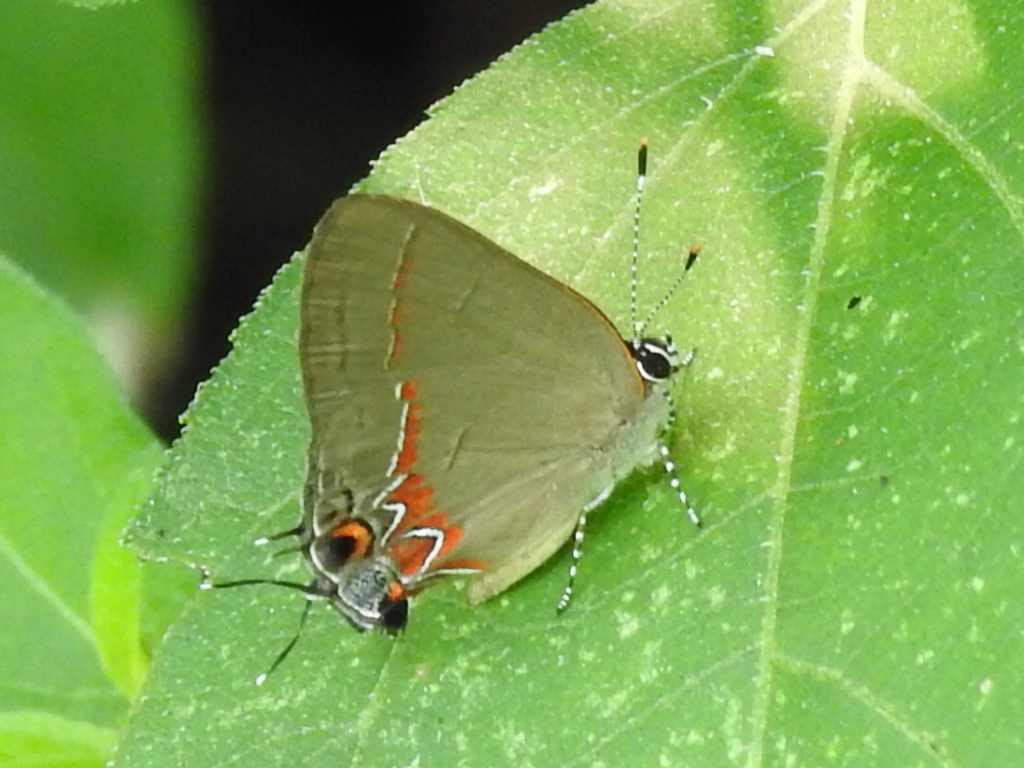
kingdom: Animalia
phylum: Arthropoda
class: Insecta
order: Lepidoptera
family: Lycaenidae
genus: Calycopis
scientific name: Calycopis isobeon
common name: Dusky-blue groundstreak
